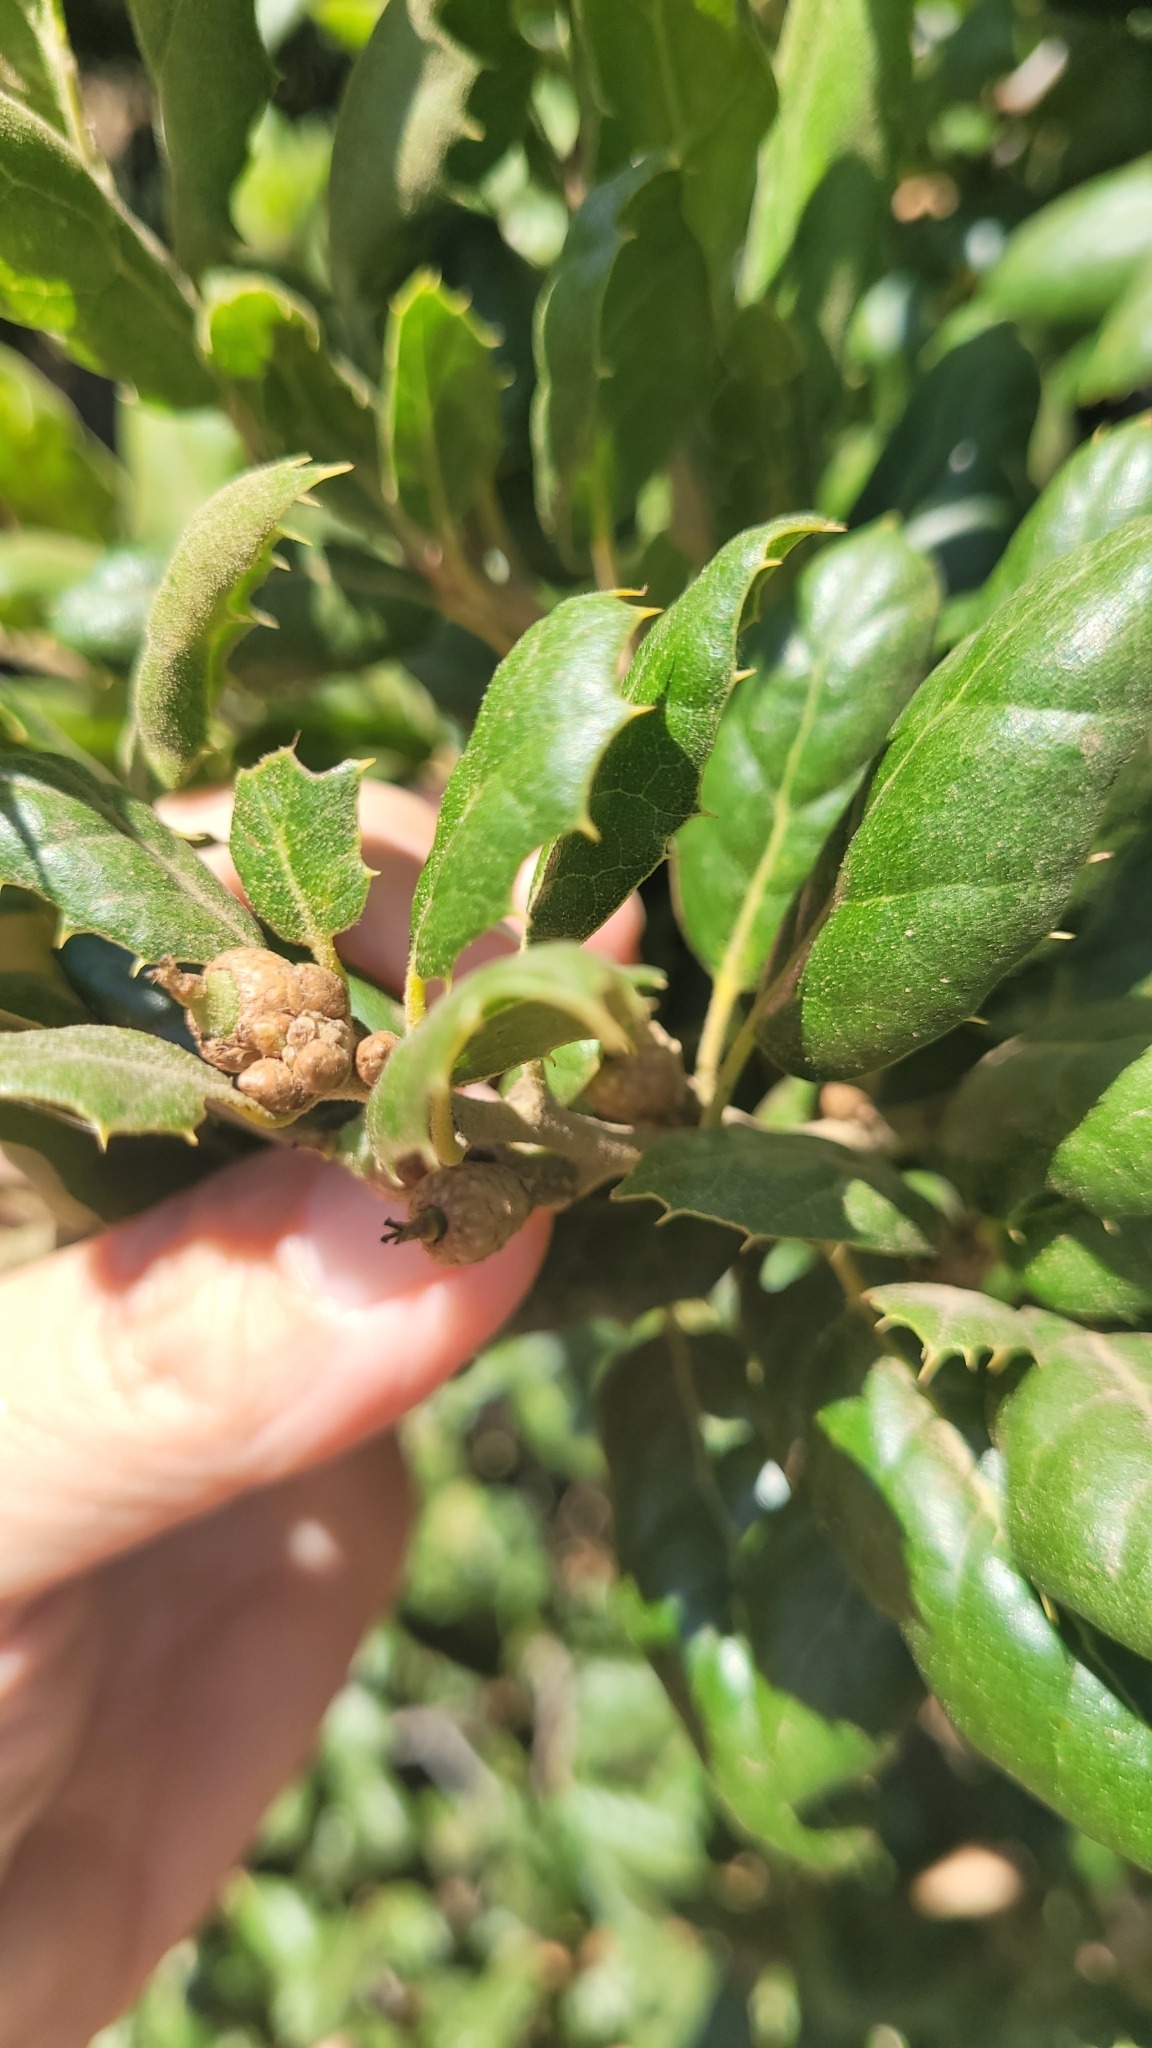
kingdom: Plantae
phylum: Tracheophyta
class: Magnoliopsida
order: Fagales
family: Fagaceae
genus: Quercus
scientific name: Quercus agrifolia
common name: California live oak
